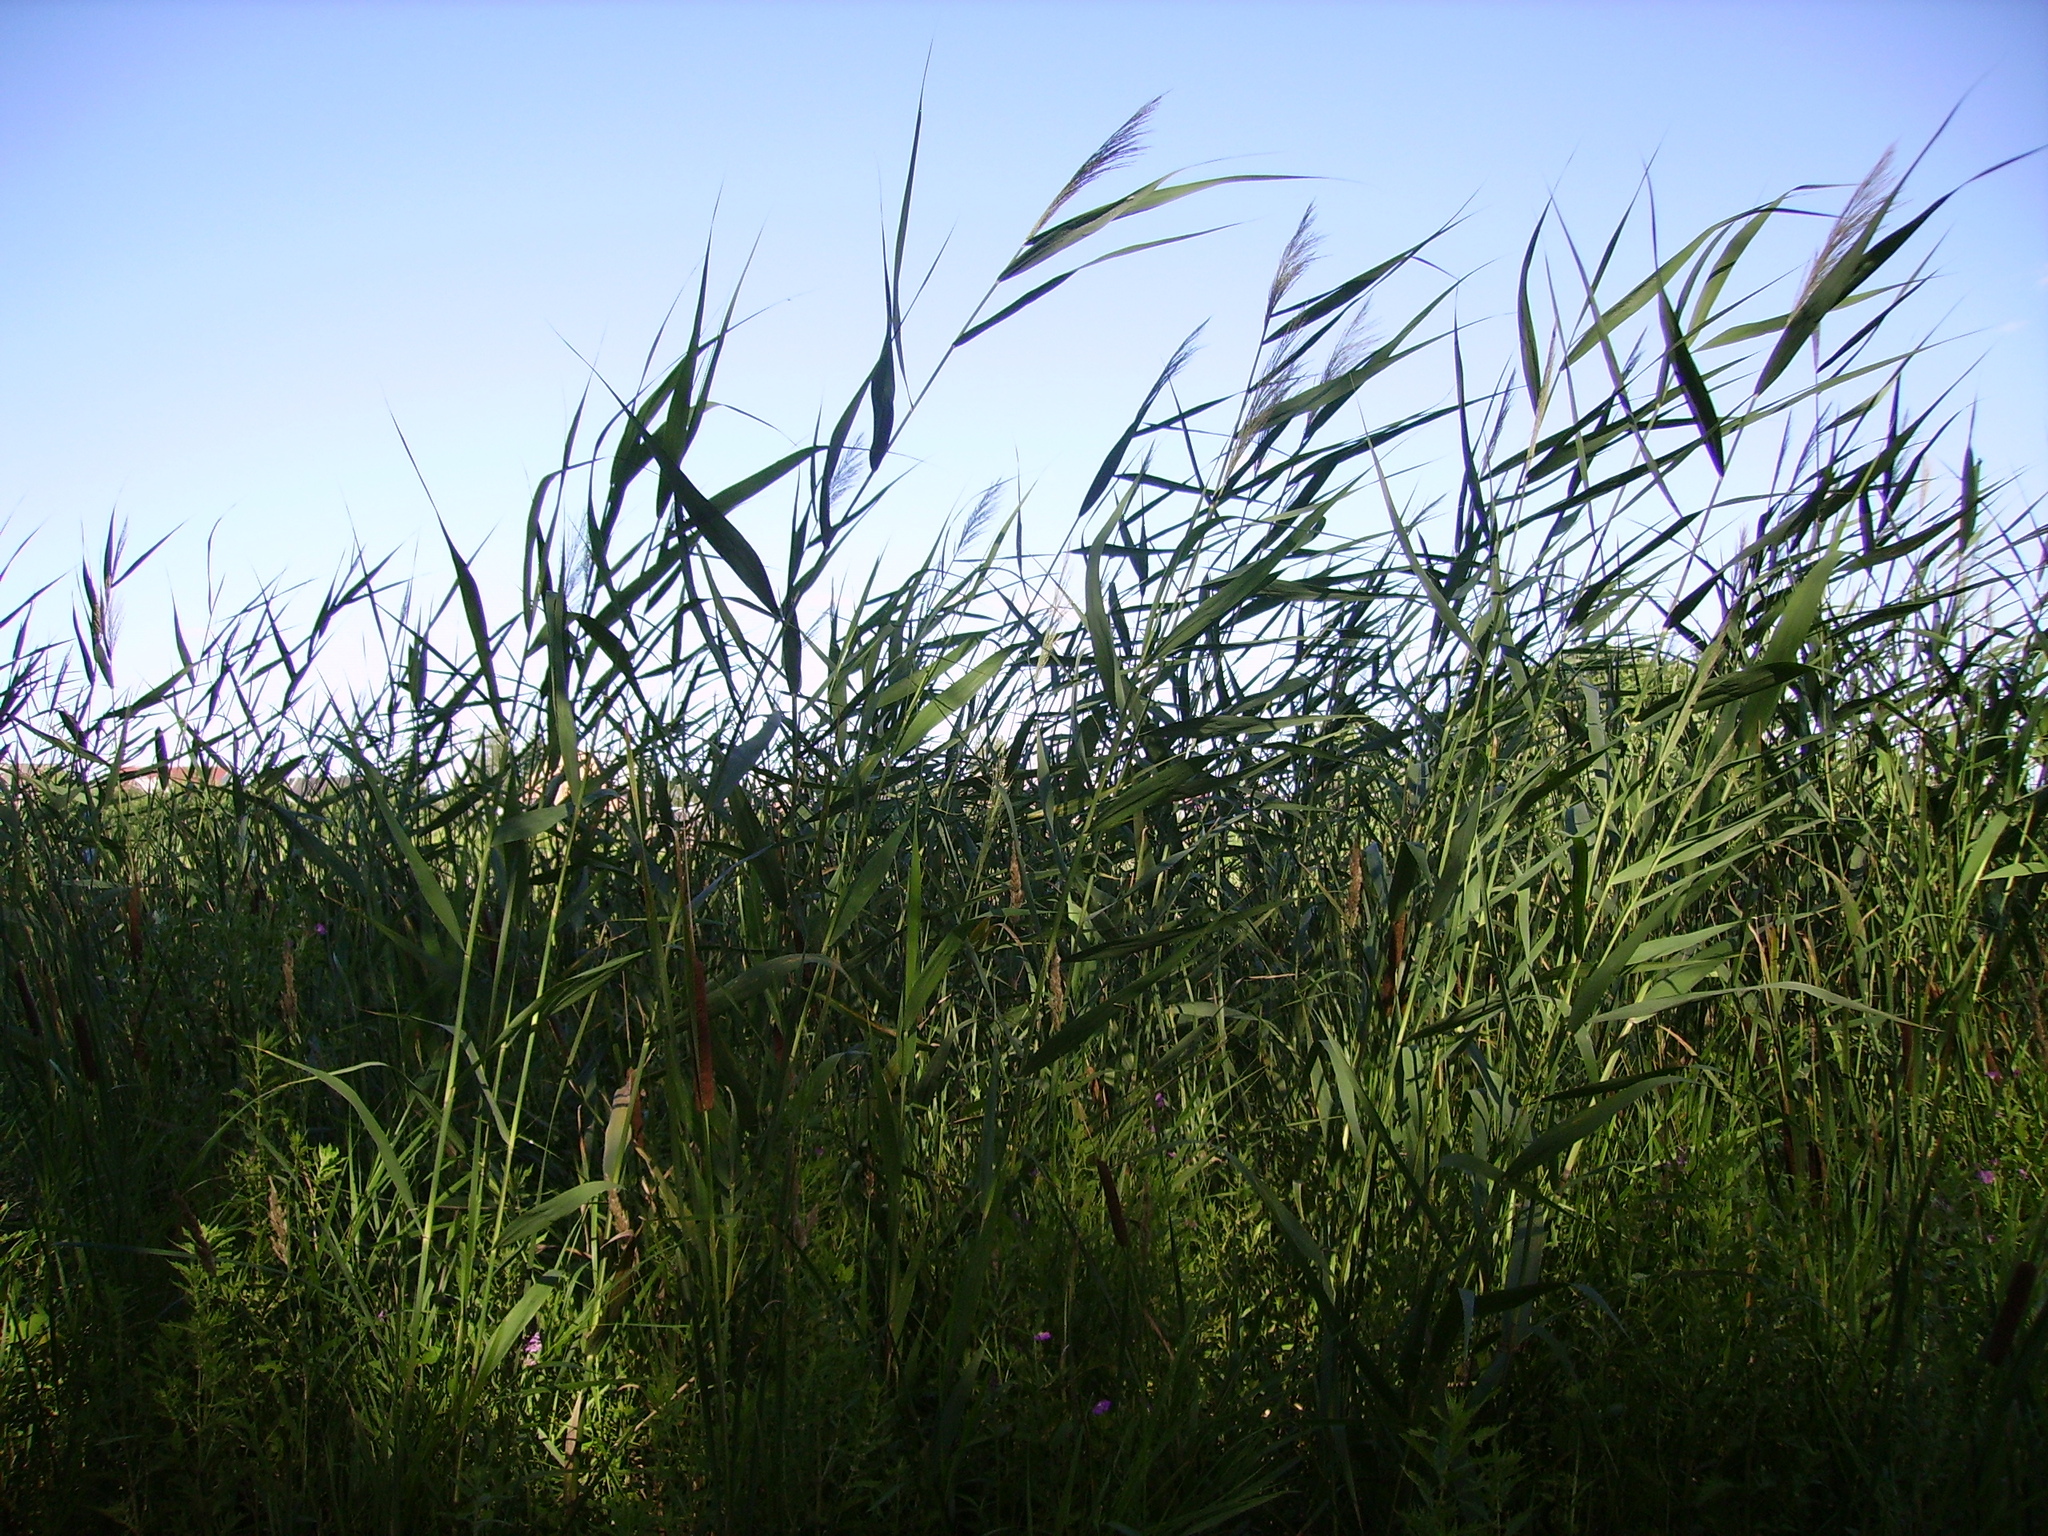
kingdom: Plantae
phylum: Tracheophyta
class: Liliopsida
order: Poales
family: Poaceae
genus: Phragmites
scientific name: Phragmites australis
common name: Common reed
